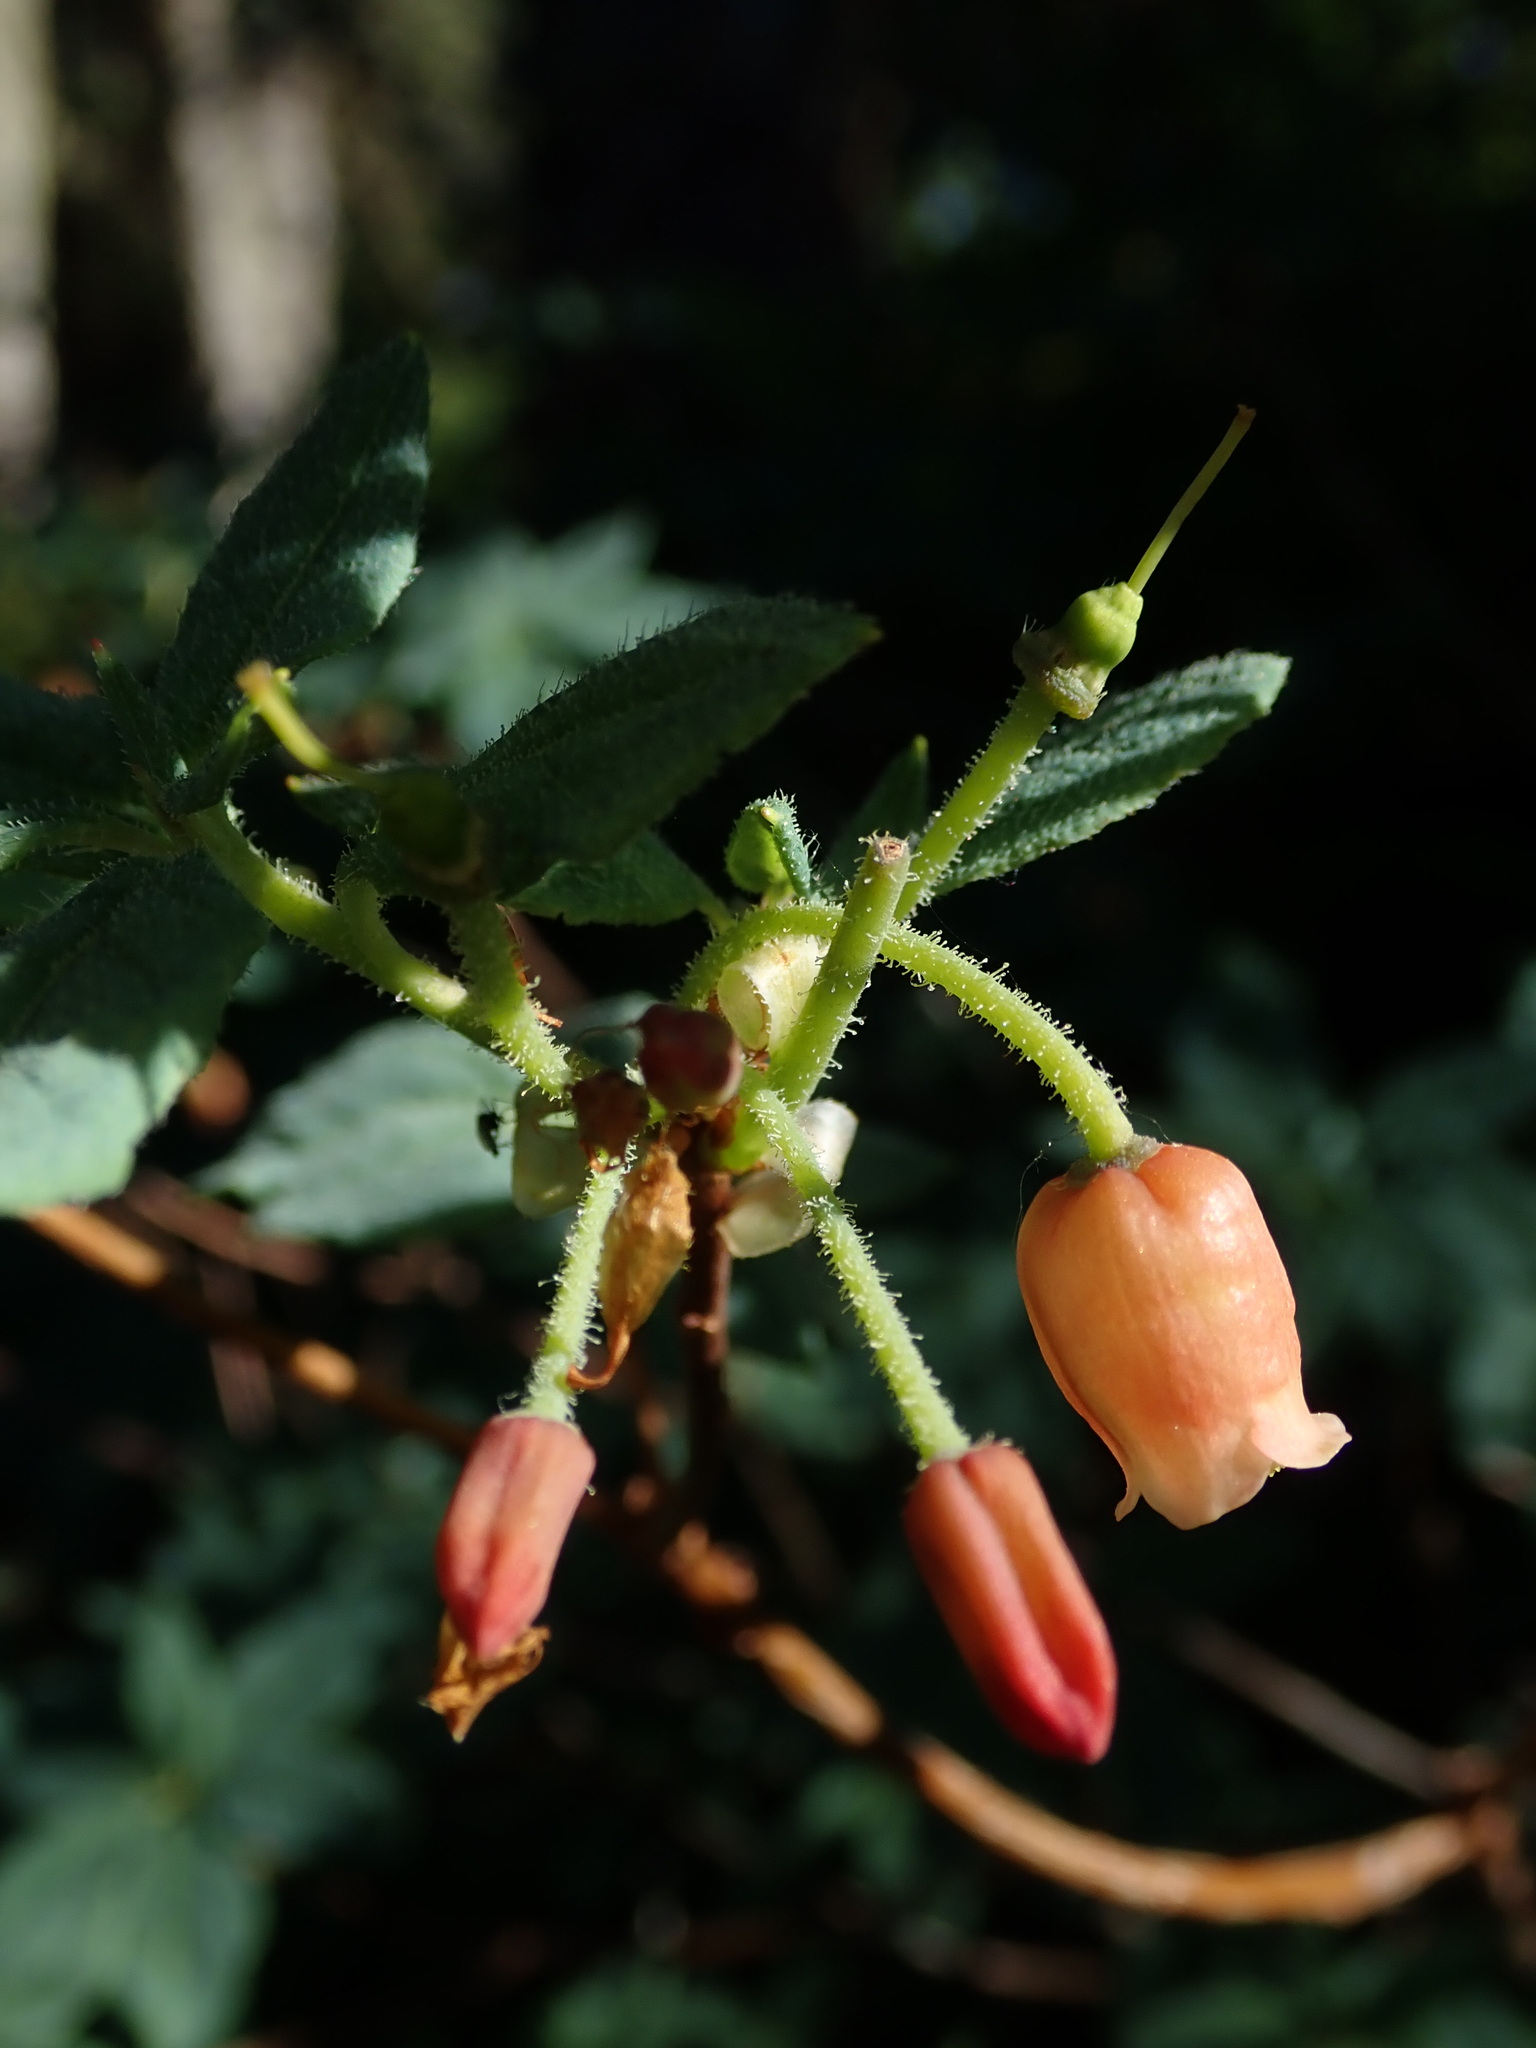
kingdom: Plantae
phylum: Tracheophyta
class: Magnoliopsida
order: Ericales
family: Ericaceae
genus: Rhododendron
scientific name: Rhododendron menziesii
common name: Pacific menziesia
